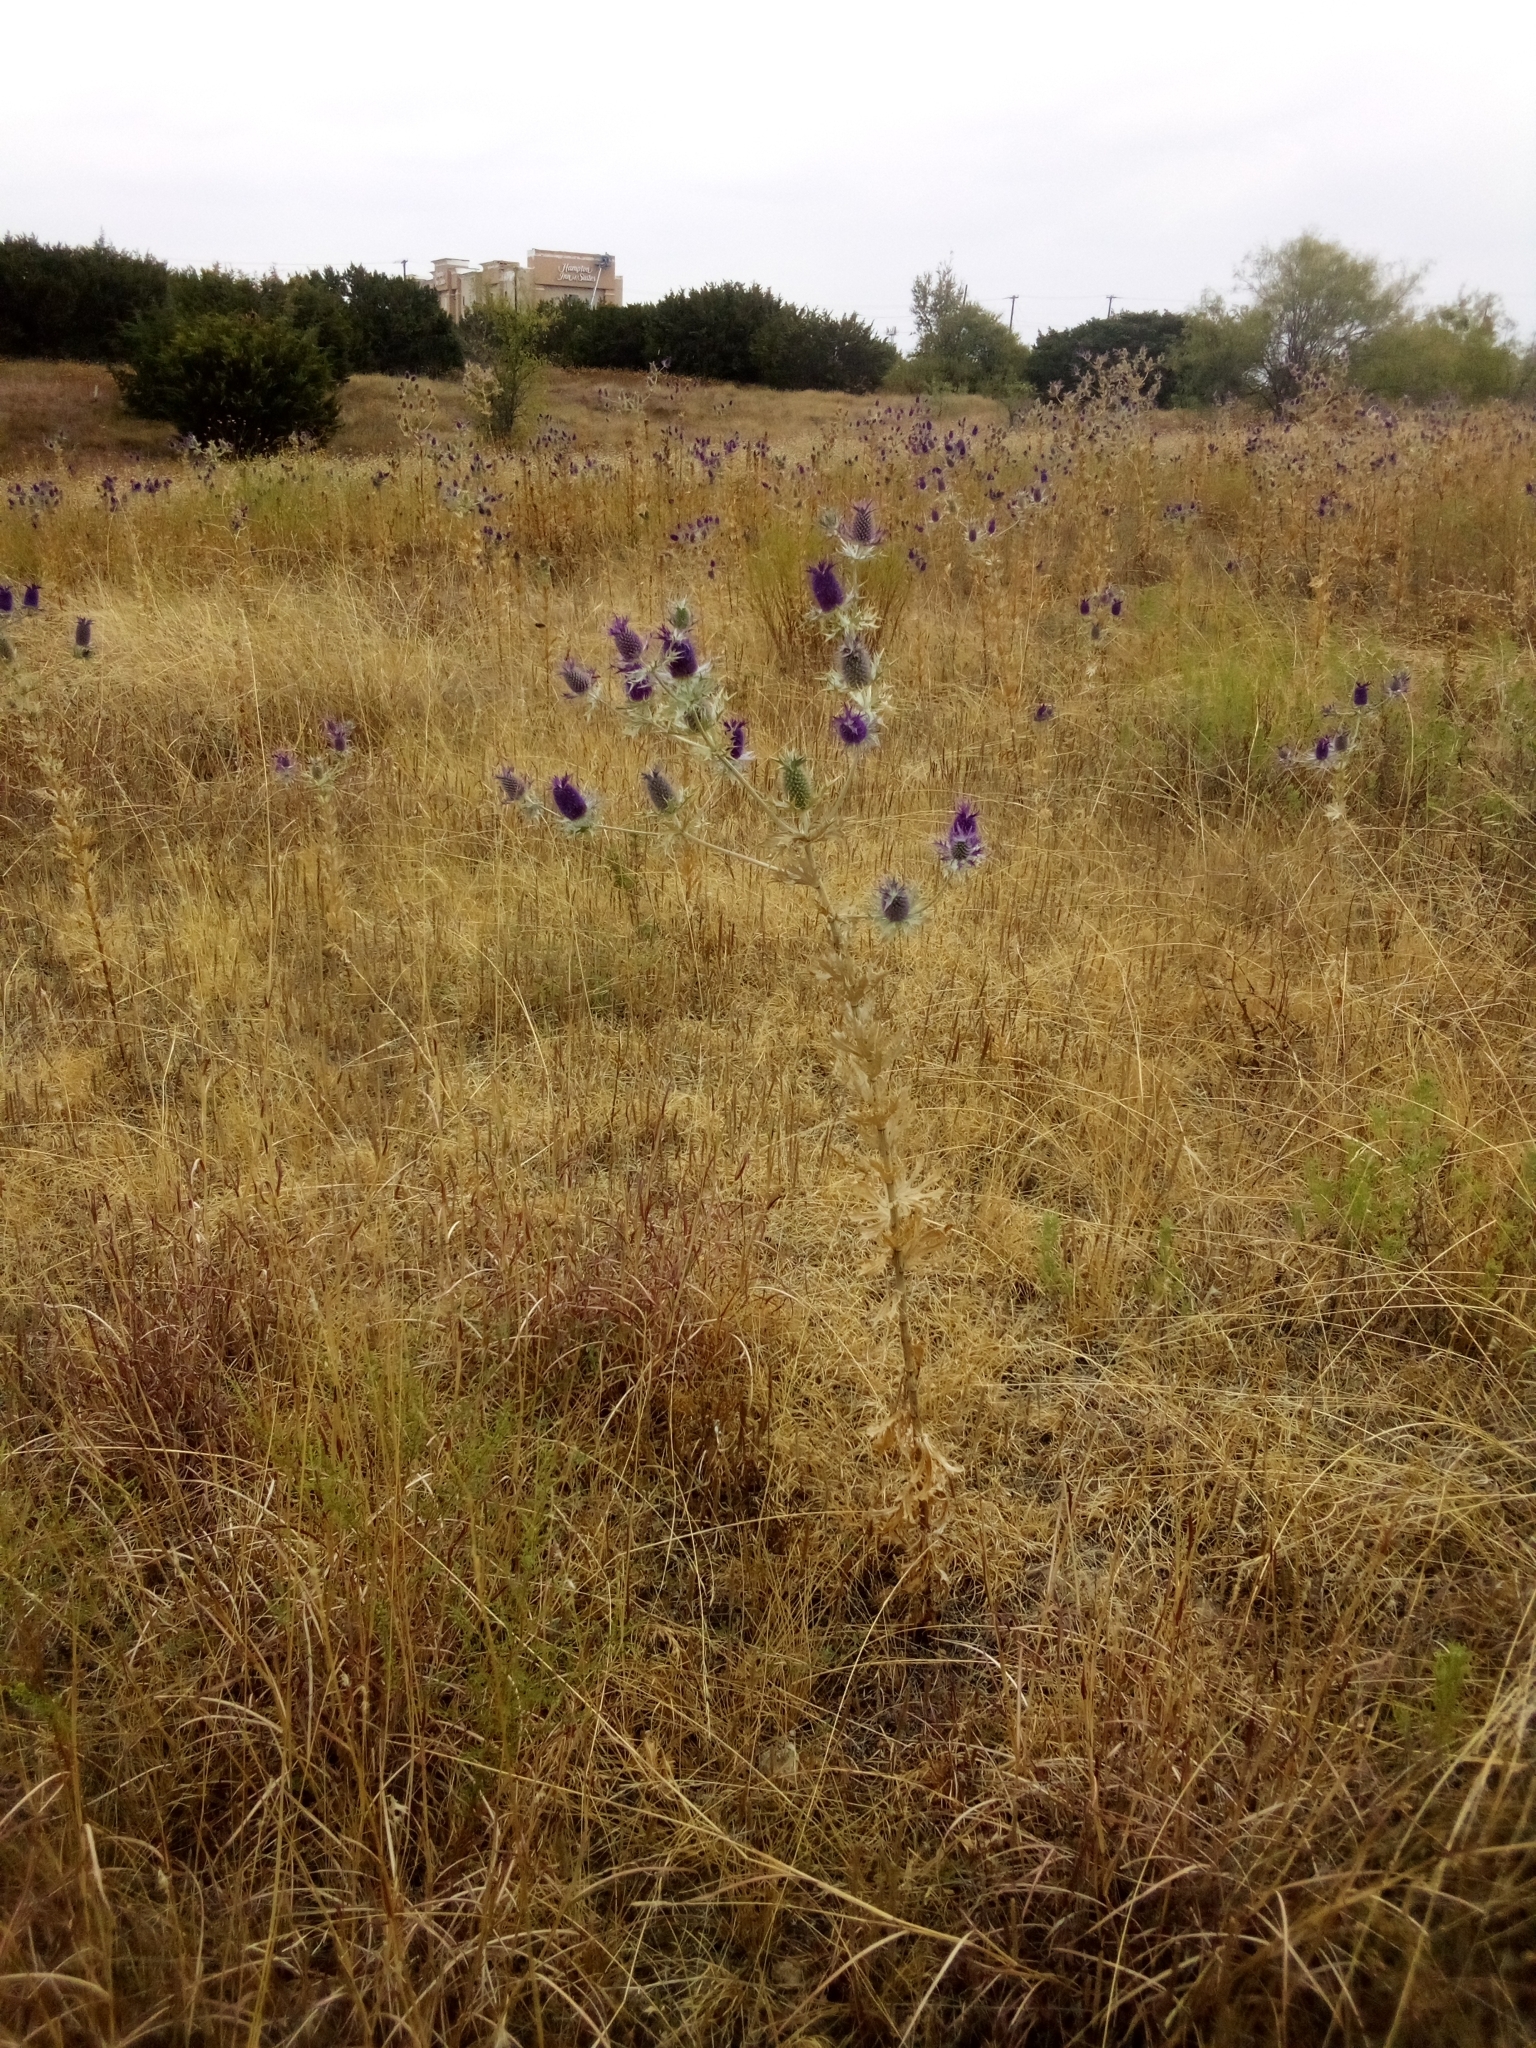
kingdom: Plantae
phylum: Tracheophyta
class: Magnoliopsida
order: Apiales
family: Apiaceae
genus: Eryngium
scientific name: Eryngium leavenworthii
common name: Leavenworth's eryngo
